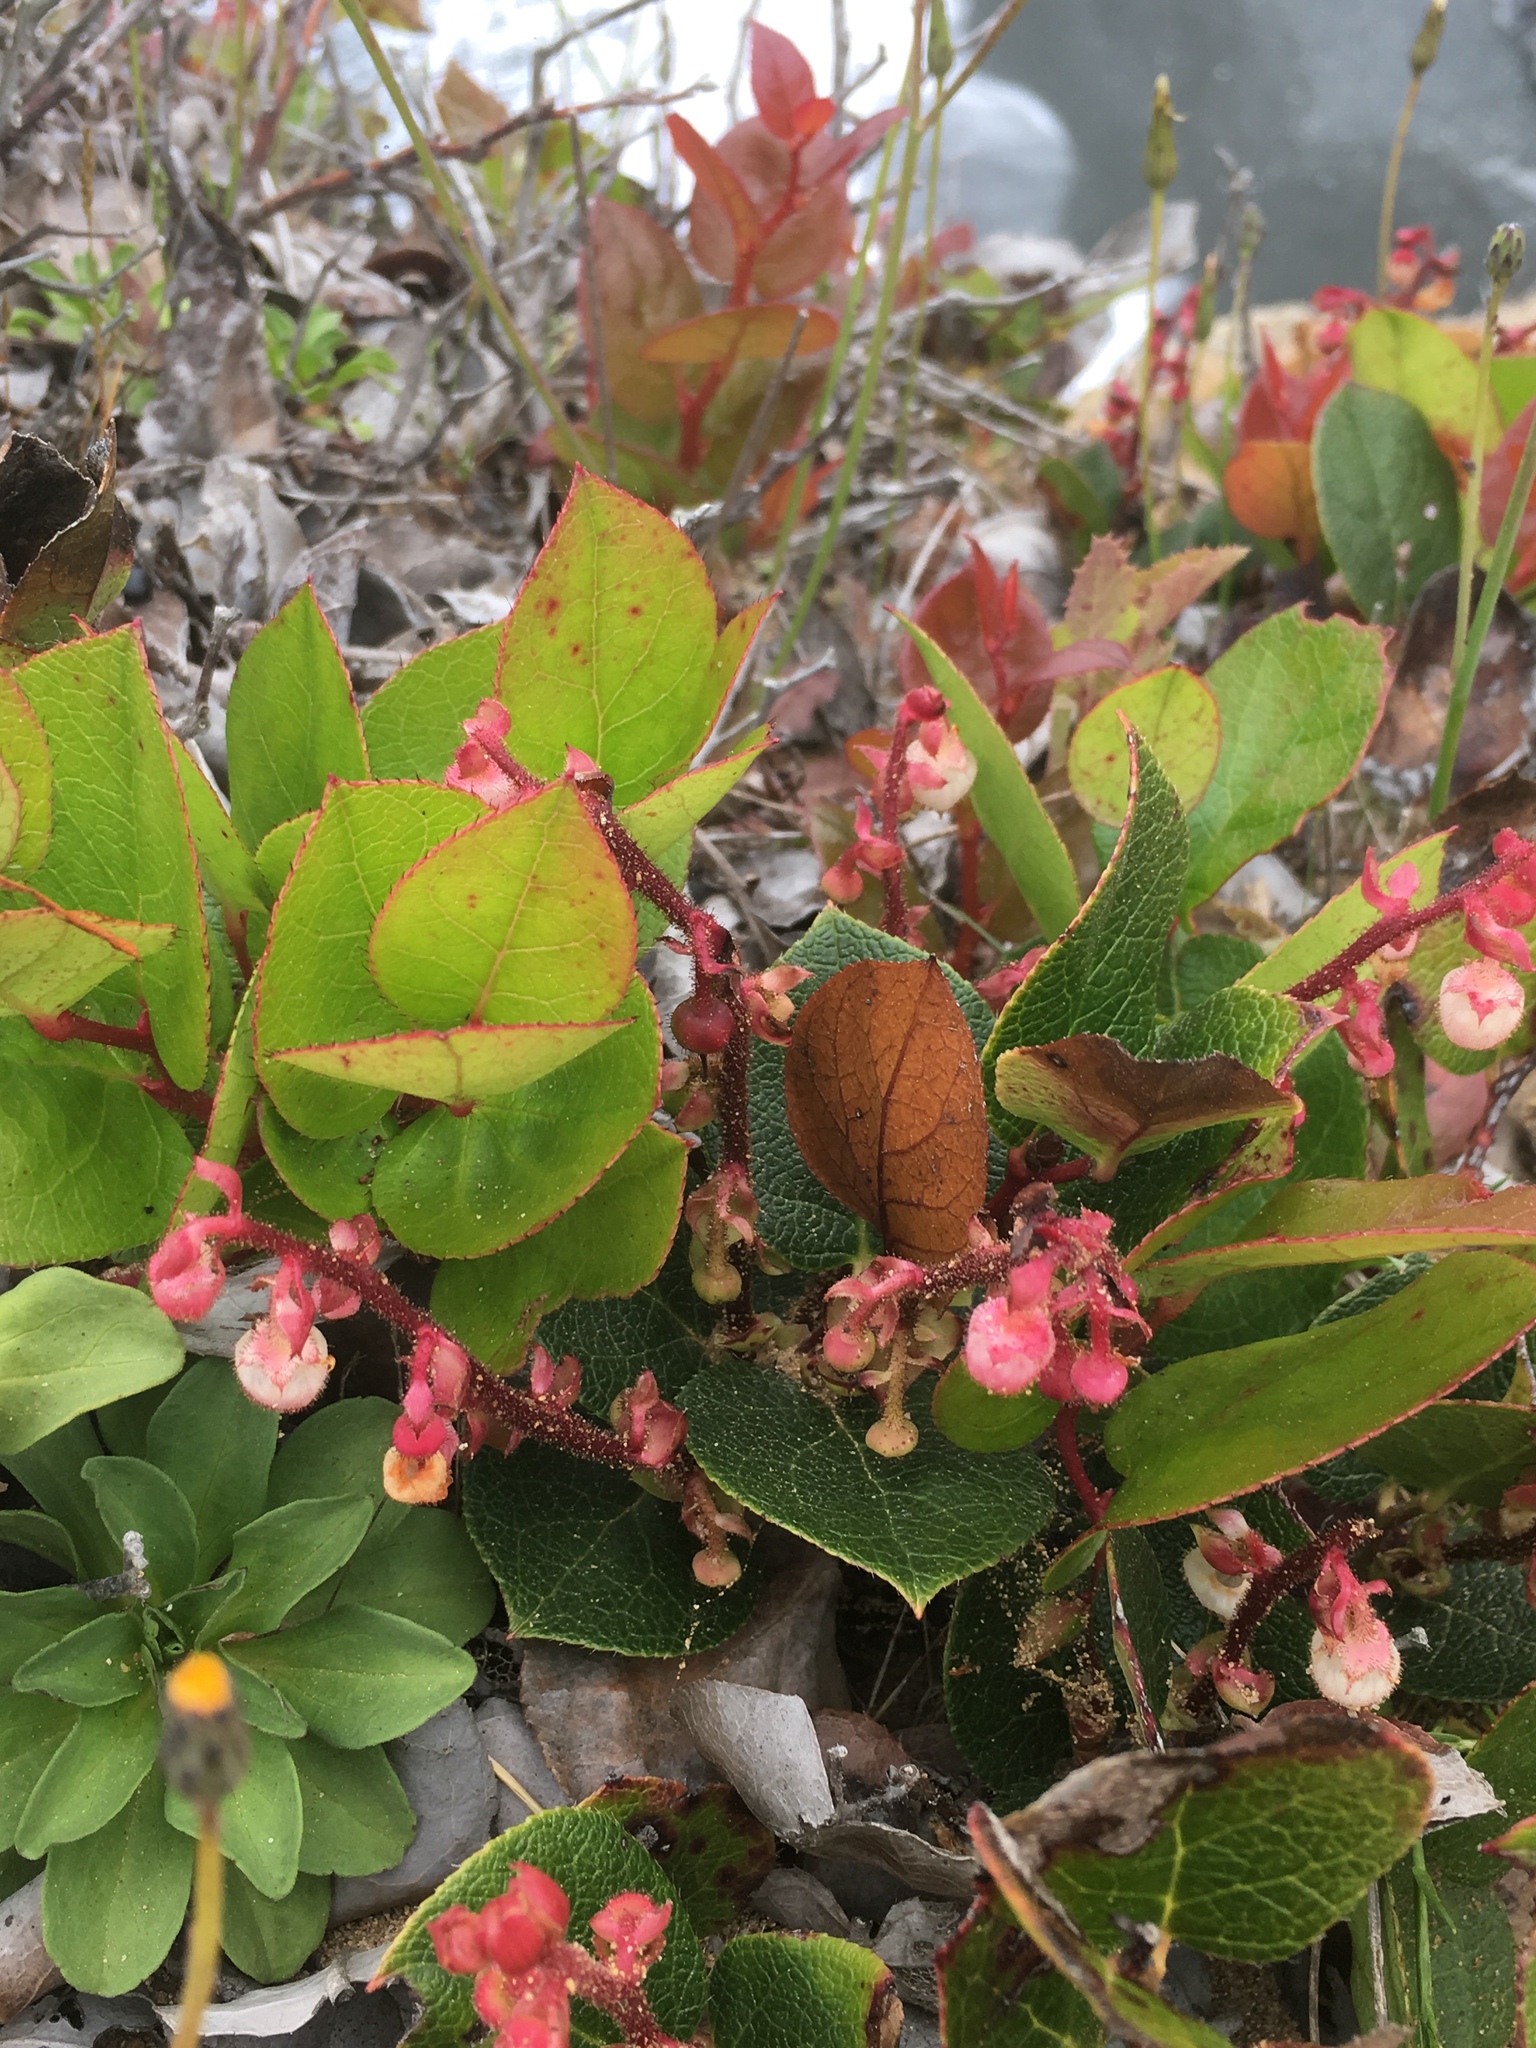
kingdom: Plantae
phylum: Tracheophyta
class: Magnoliopsida
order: Ericales
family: Ericaceae
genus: Gaultheria
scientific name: Gaultheria shallon
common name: Shallon
